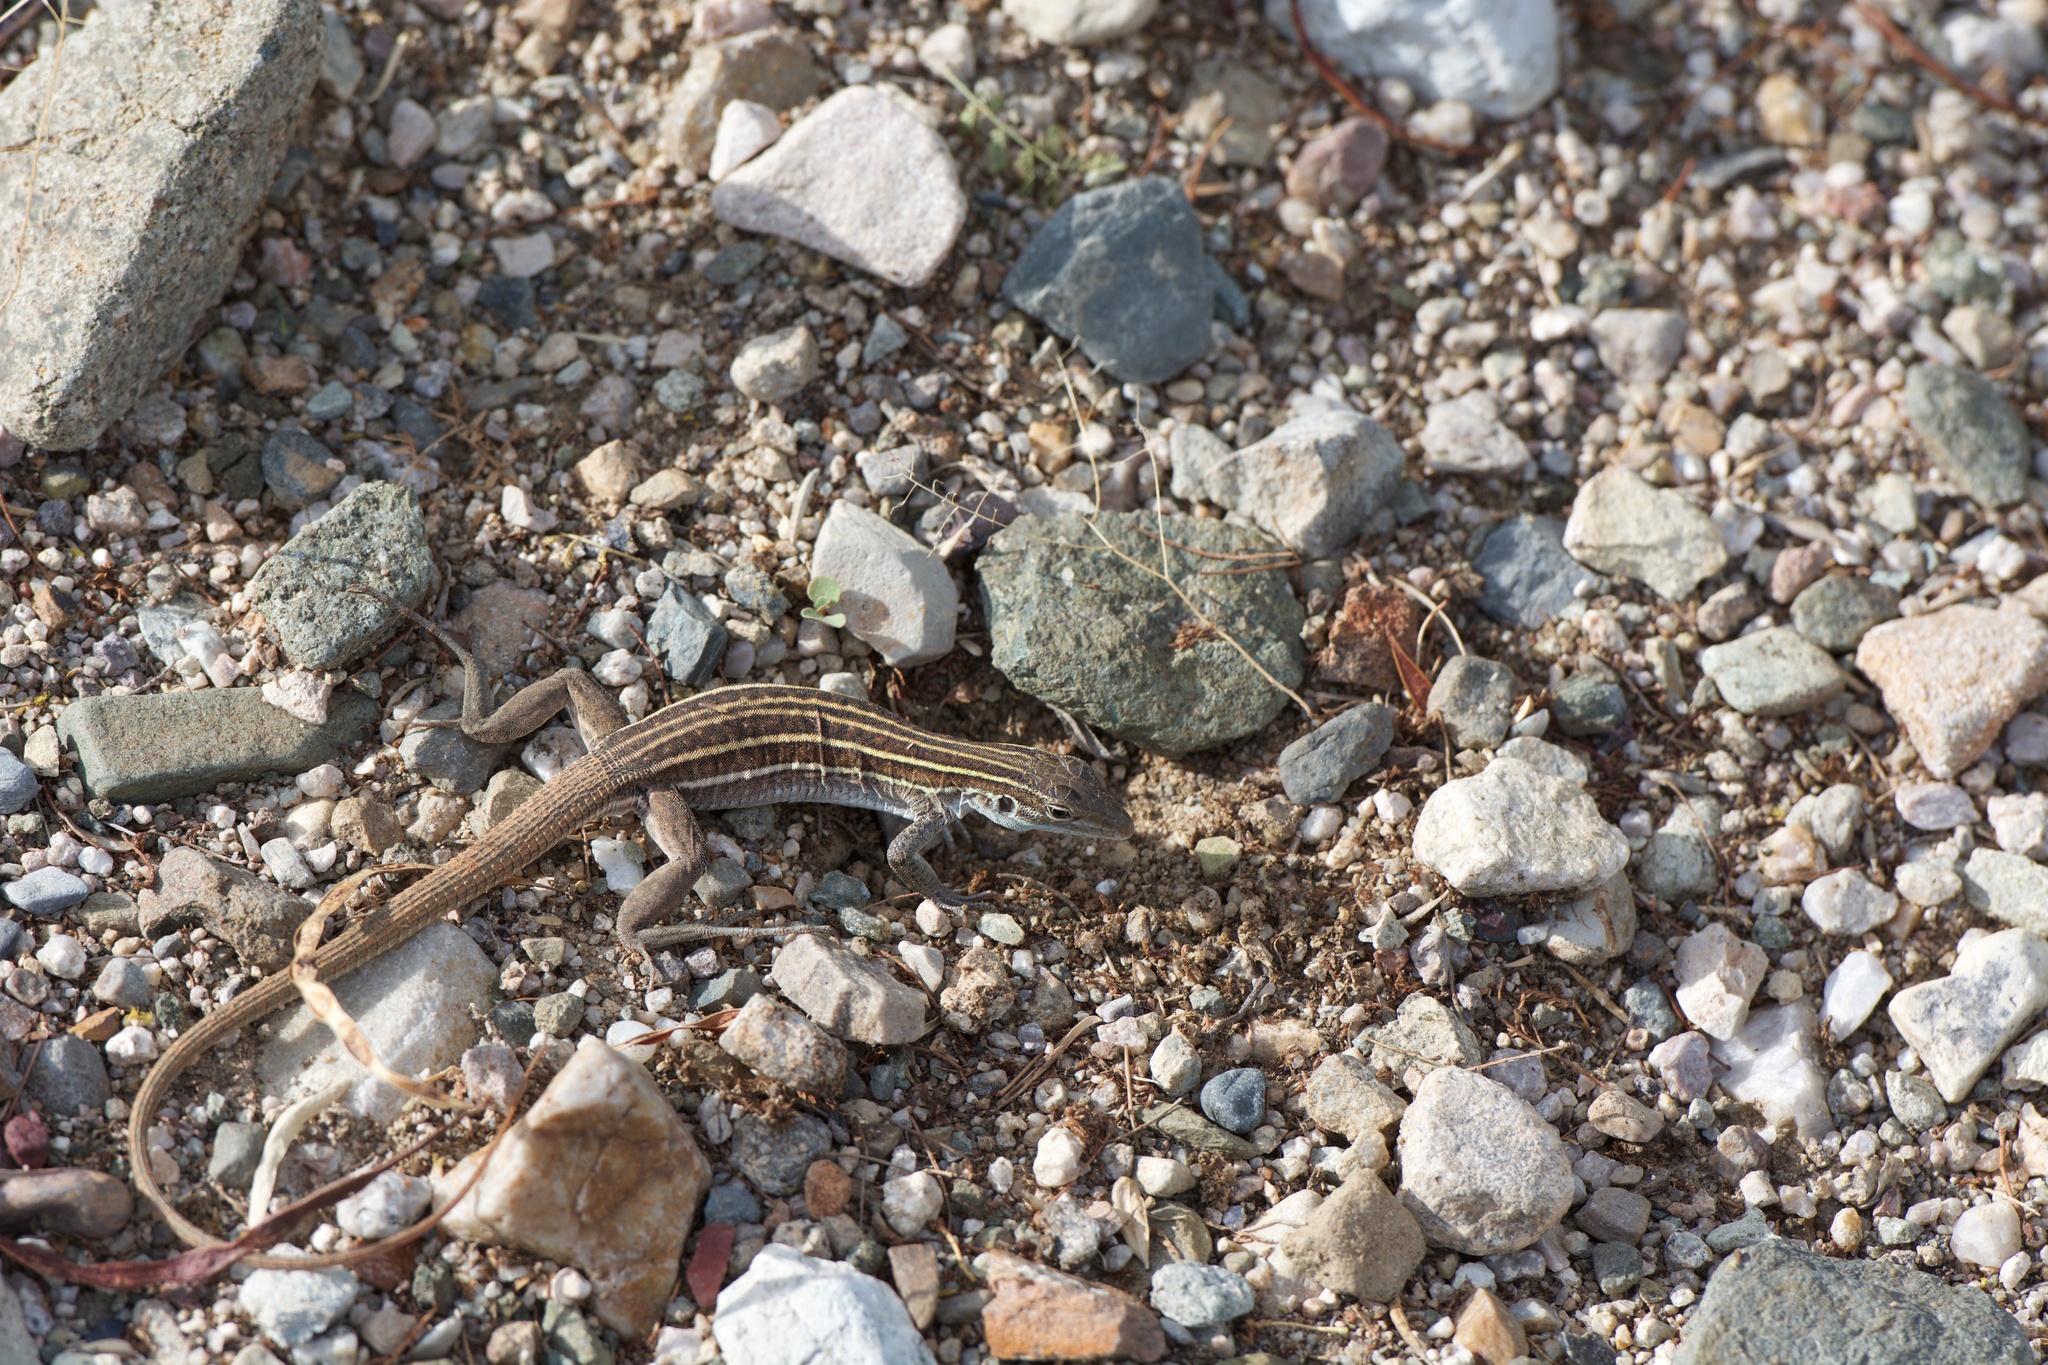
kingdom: Animalia
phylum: Chordata
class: Squamata
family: Teiidae
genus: Aspidoscelis
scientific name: Aspidoscelis sonorae
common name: Sonoran spotted whiptail
